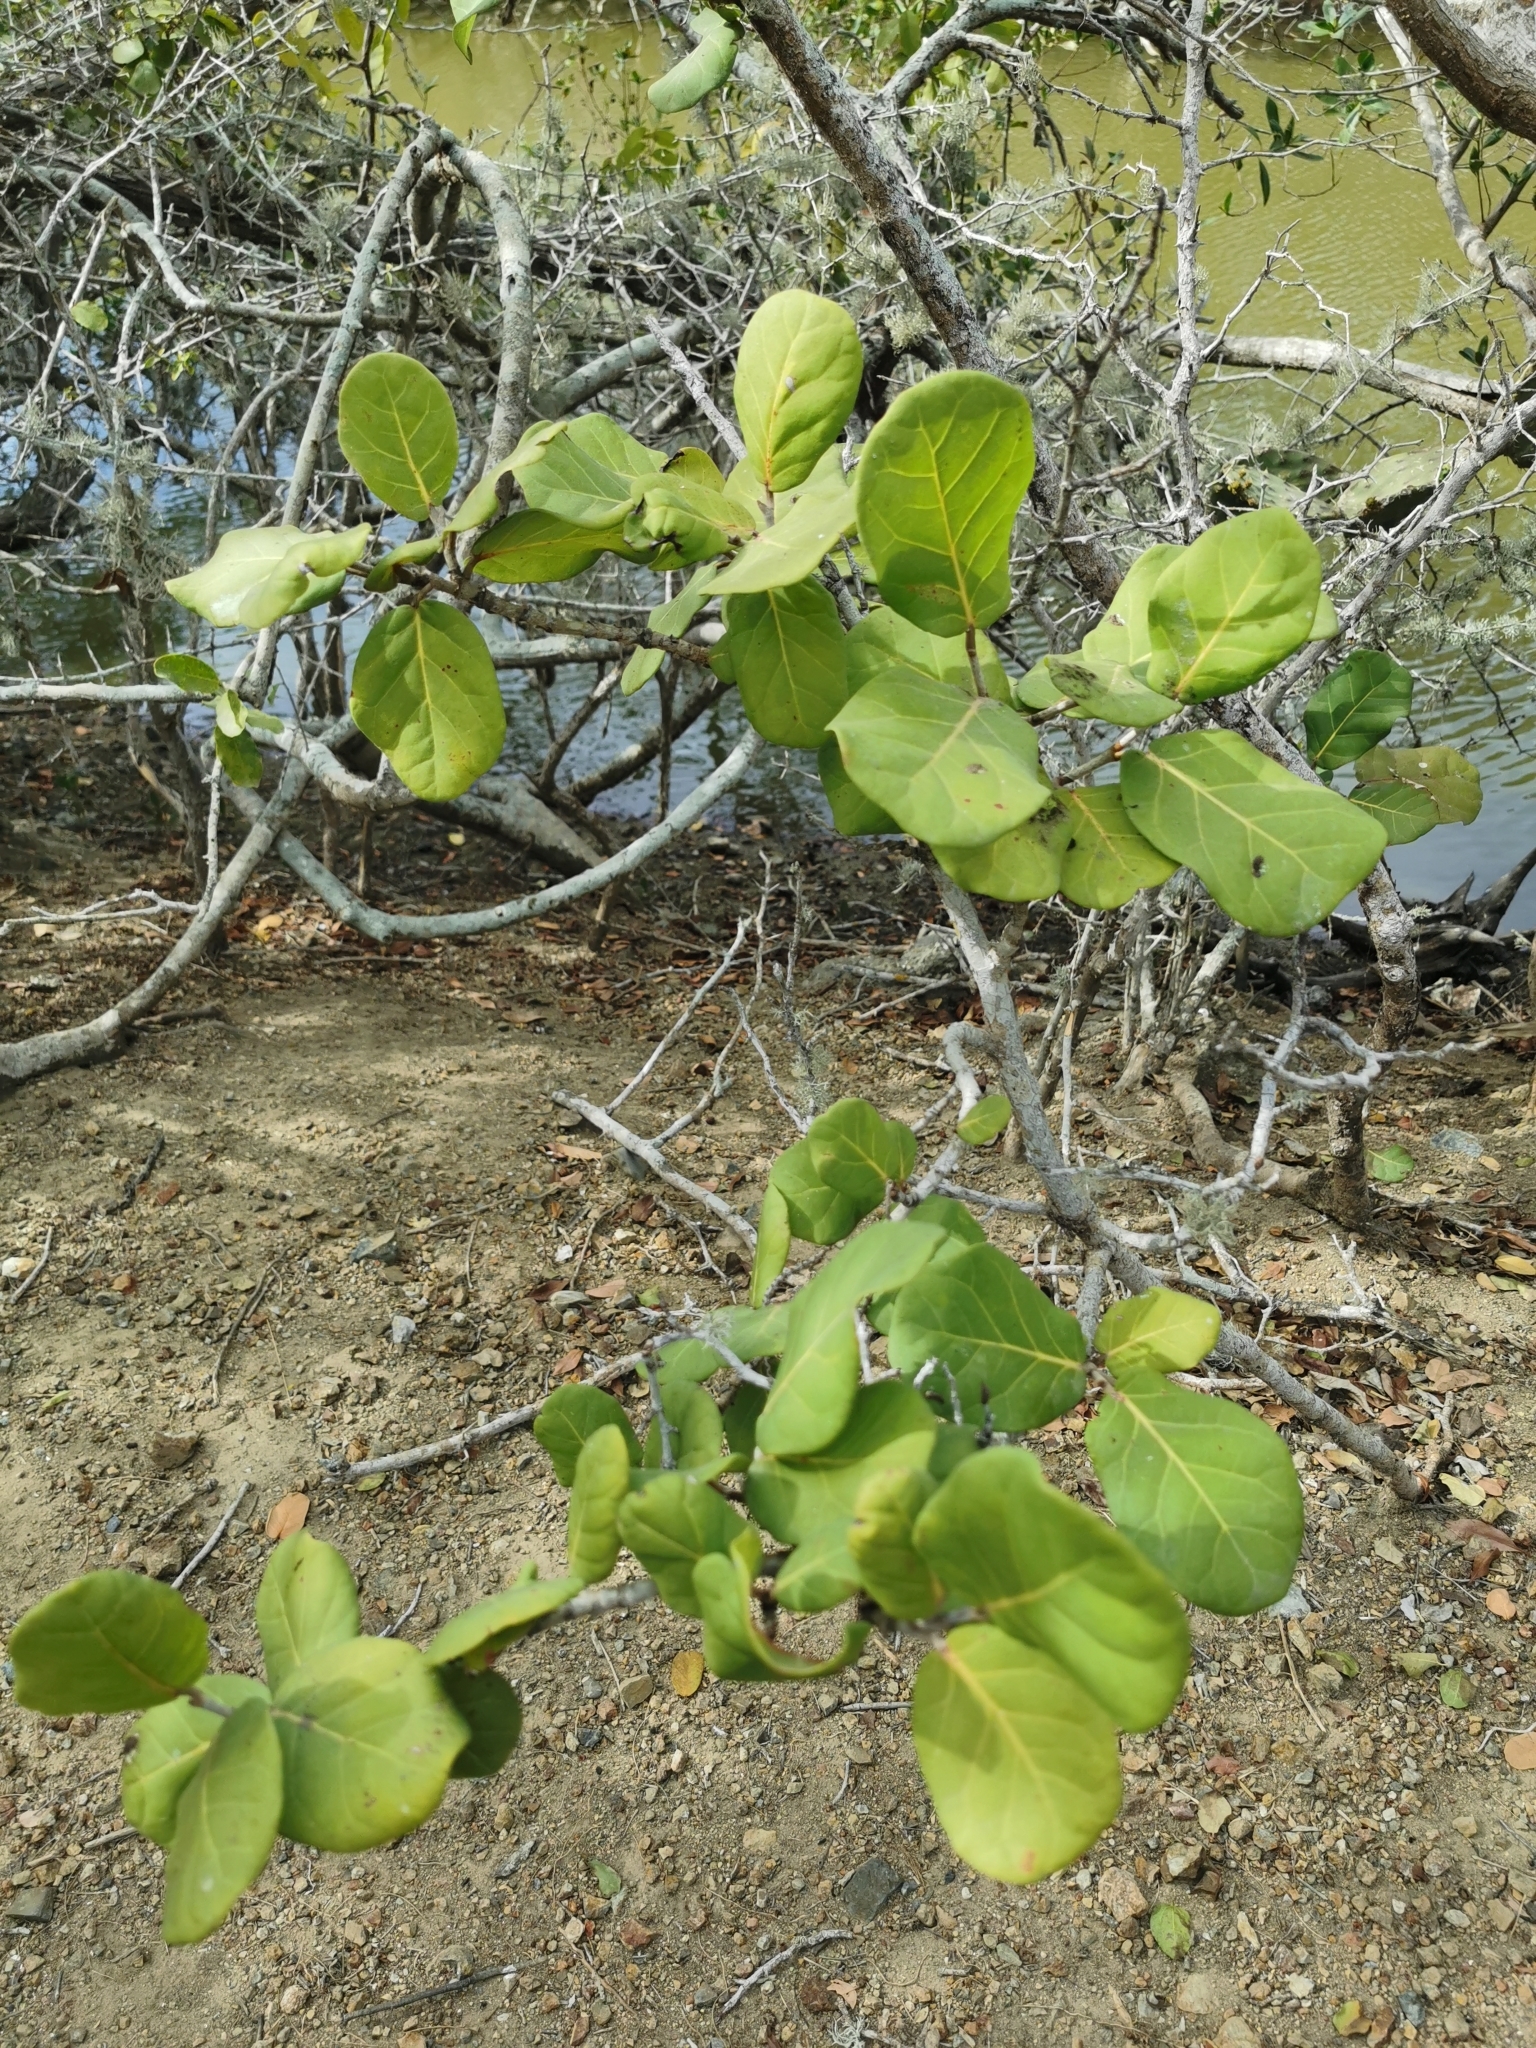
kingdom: Plantae
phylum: Tracheophyta
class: Magnoliopsida
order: Caryophyllales
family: Polygonaceae
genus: Coccoloba
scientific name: Coccoloba goldmanii
